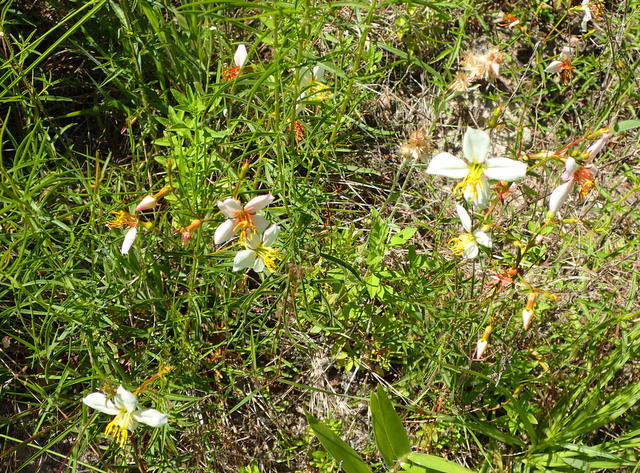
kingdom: Plantae
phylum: Tracheophyta
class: Magnoliopsida
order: Myrtales
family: Melastomataceae
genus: Rhexia
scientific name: Rhexia mariana
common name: Dull meadow-pitcher
